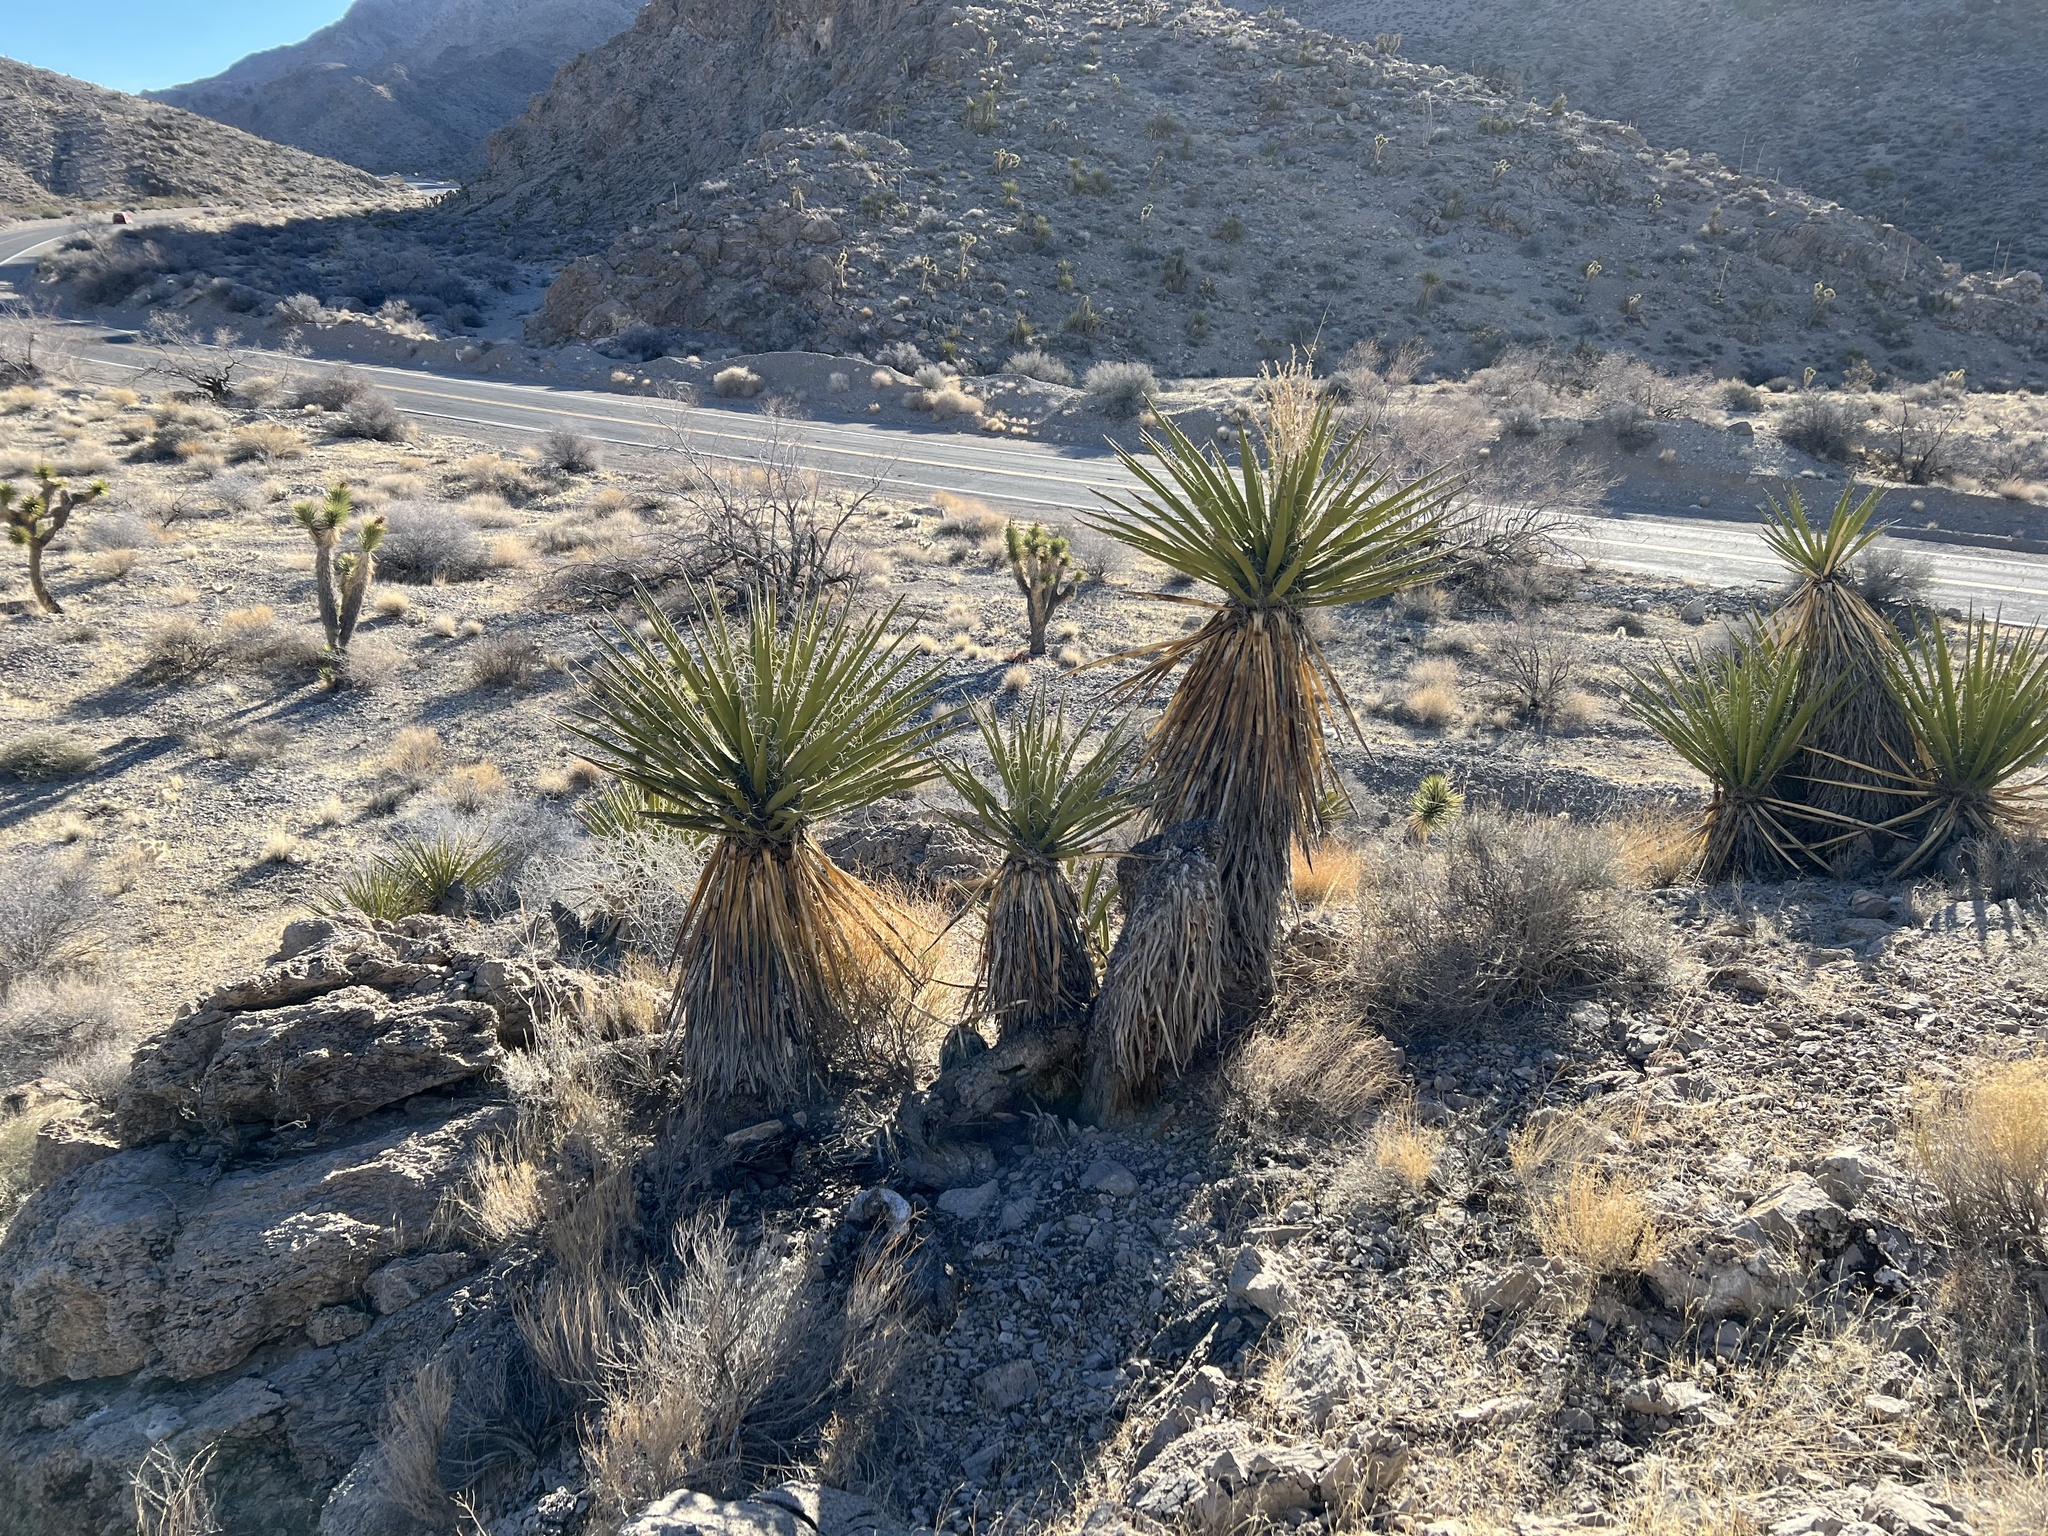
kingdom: Plantae
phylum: Tracheophyta
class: Liliopsida
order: Asparagales
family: Asparagaceae
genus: Yucca
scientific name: Yucca schidigera
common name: Mojave yucca
